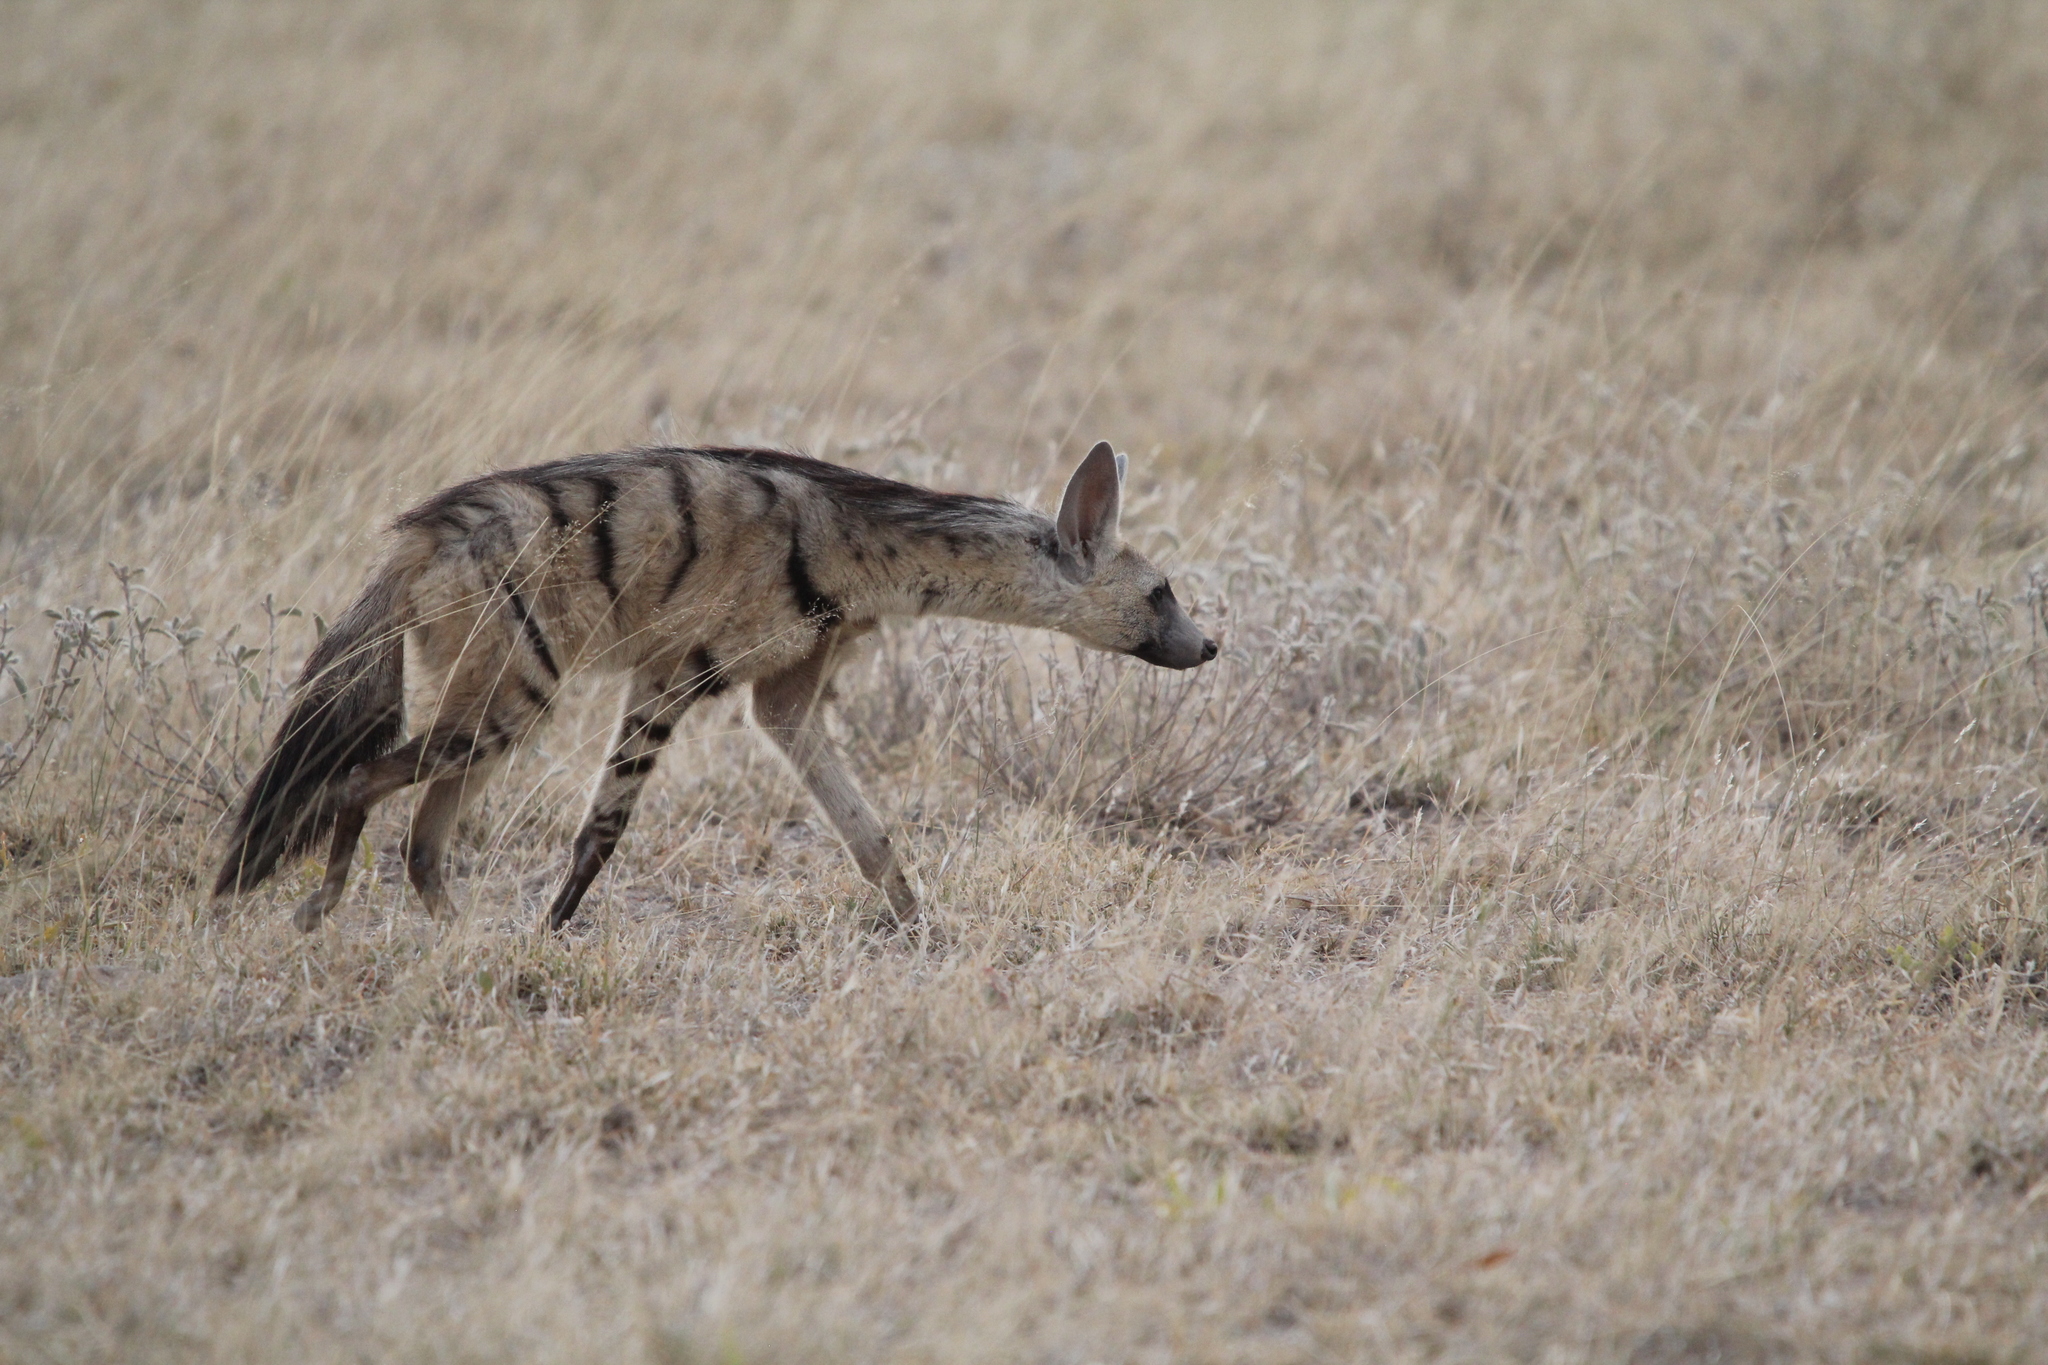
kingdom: Animalia
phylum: Chordata
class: Mammalia
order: Carnivora
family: Hyaenidae
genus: Proteles
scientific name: Proteles
